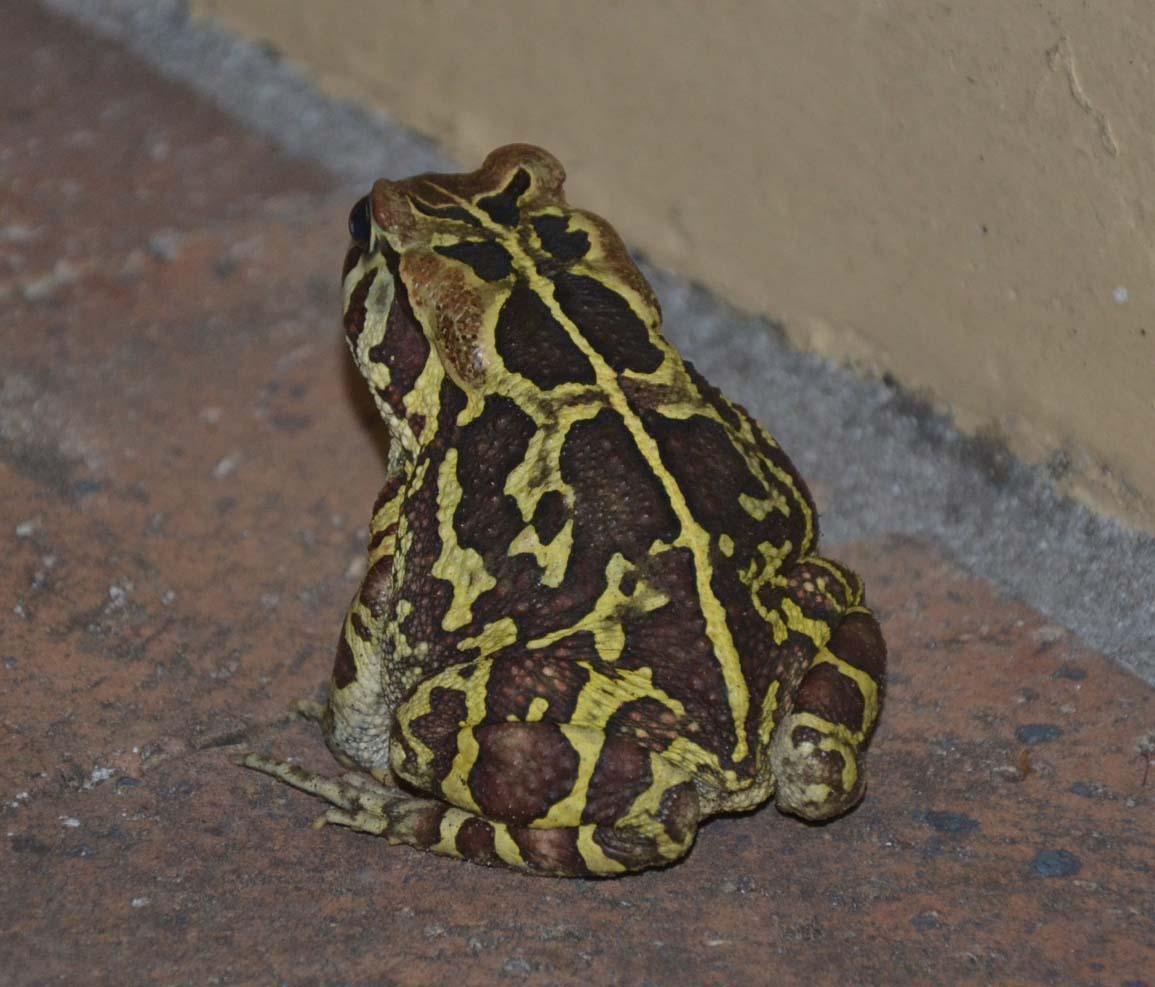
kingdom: Animalia
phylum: Chordata
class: Amphibia
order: Anura
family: Bufonidae
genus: Sclerophrys
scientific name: Sclerophrys pantherina
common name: Panther toad
